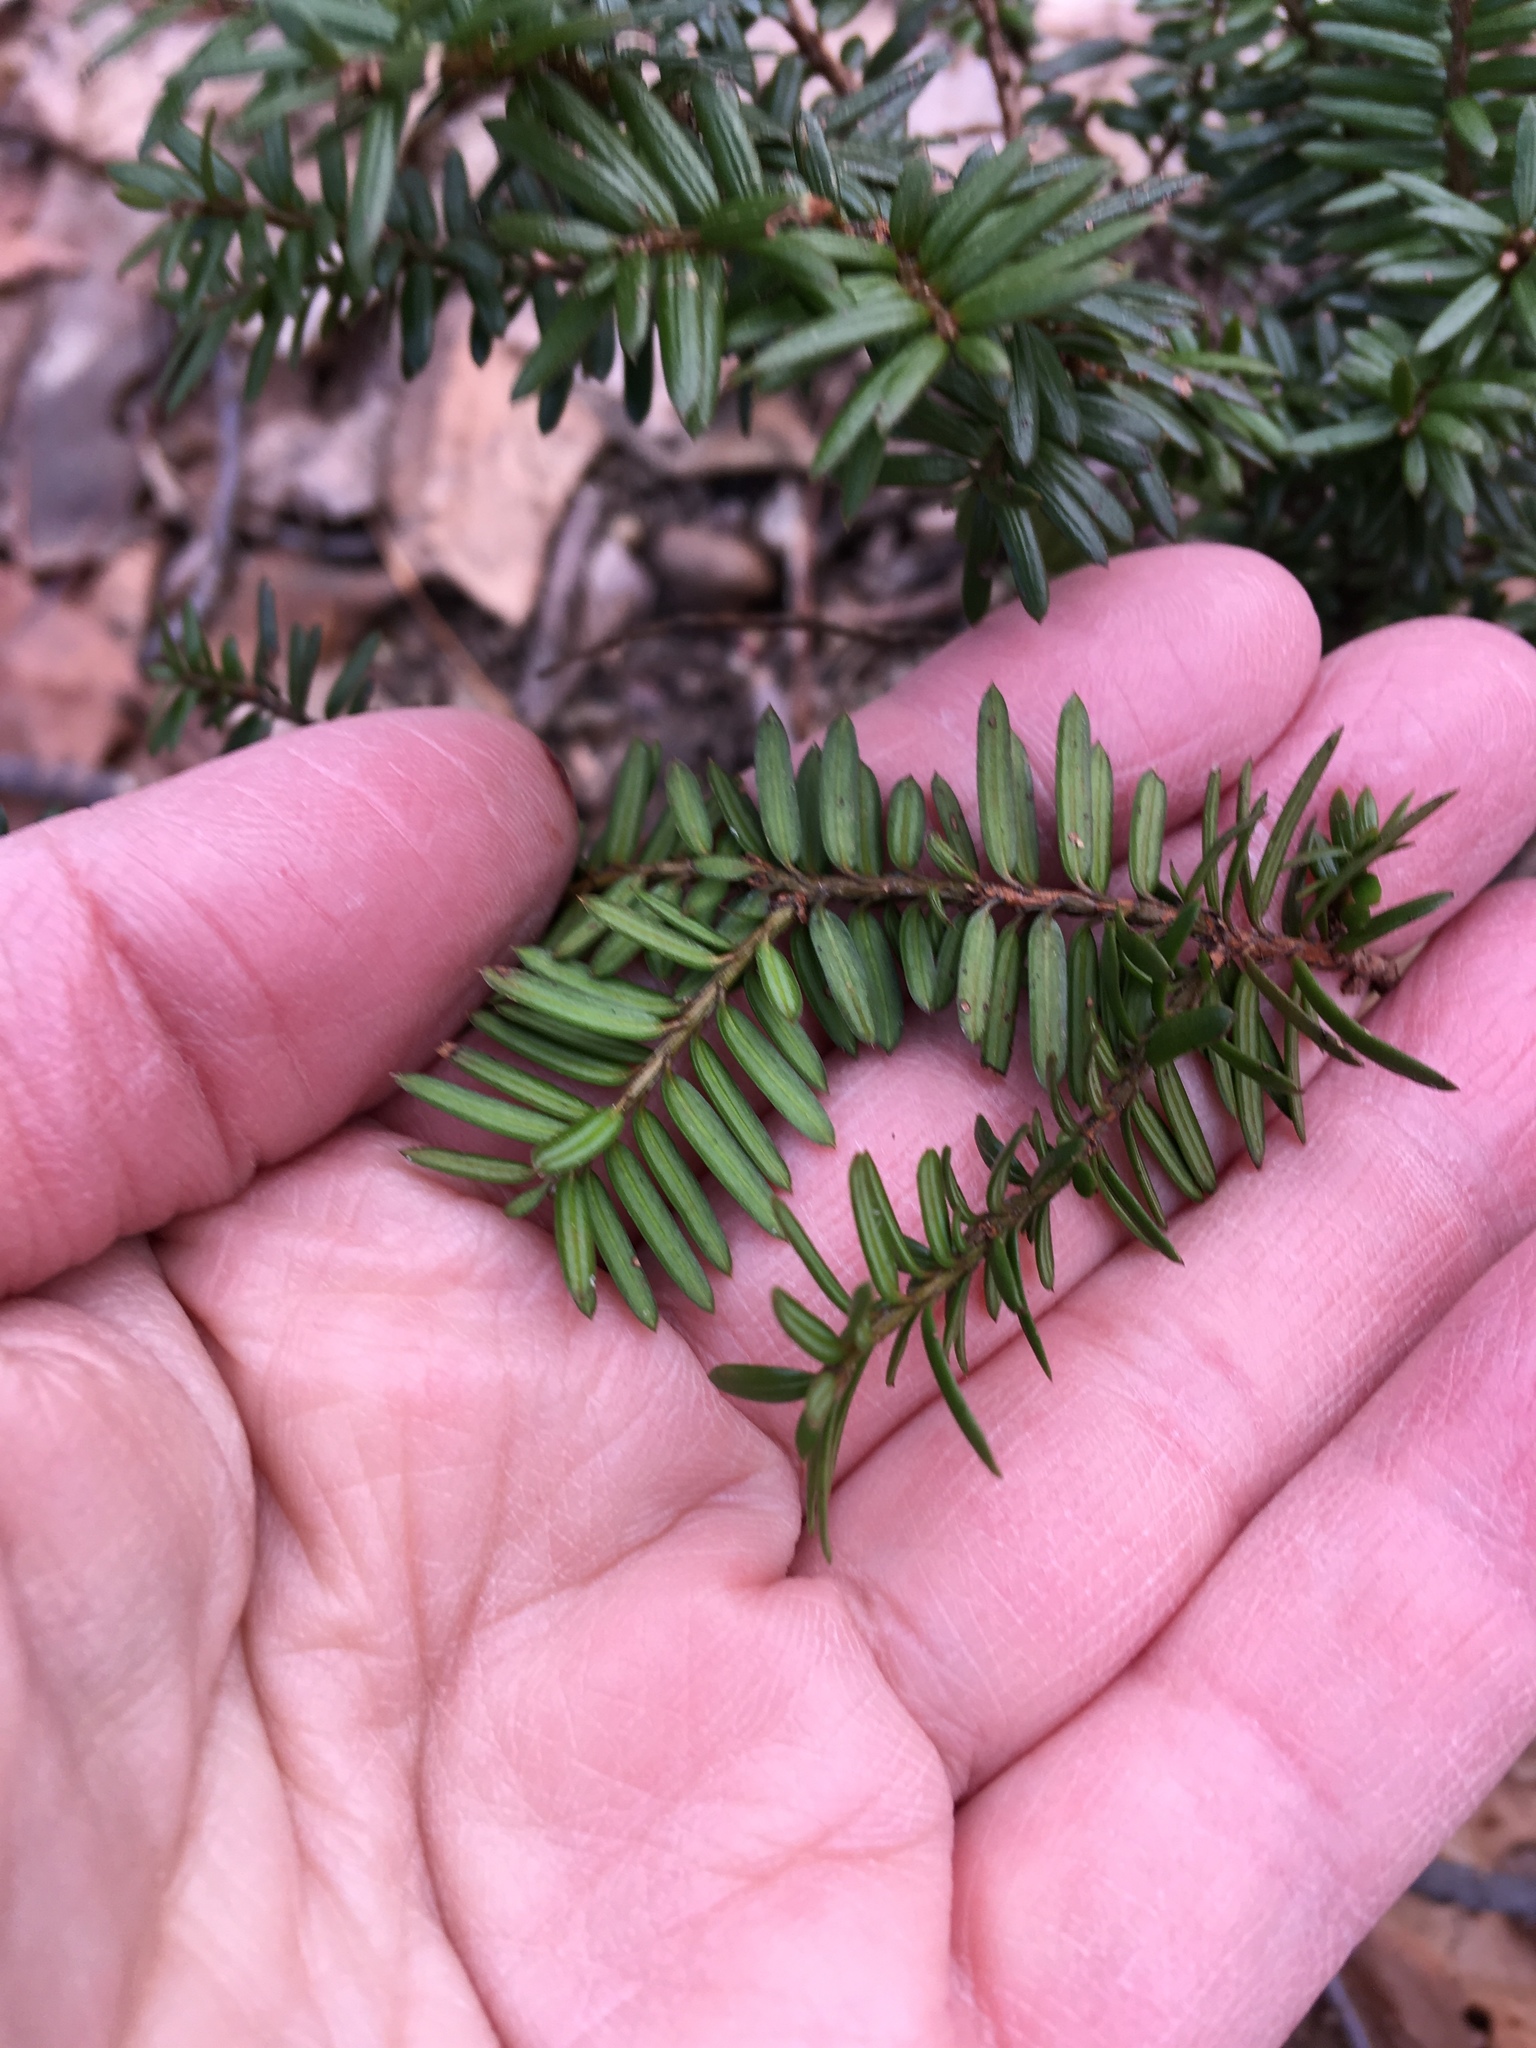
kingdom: Plantae
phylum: Tracheophyta
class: Pinopsida
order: Pinales
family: Taxaceae
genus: Taxus
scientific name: Taxus baccata
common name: Yew
